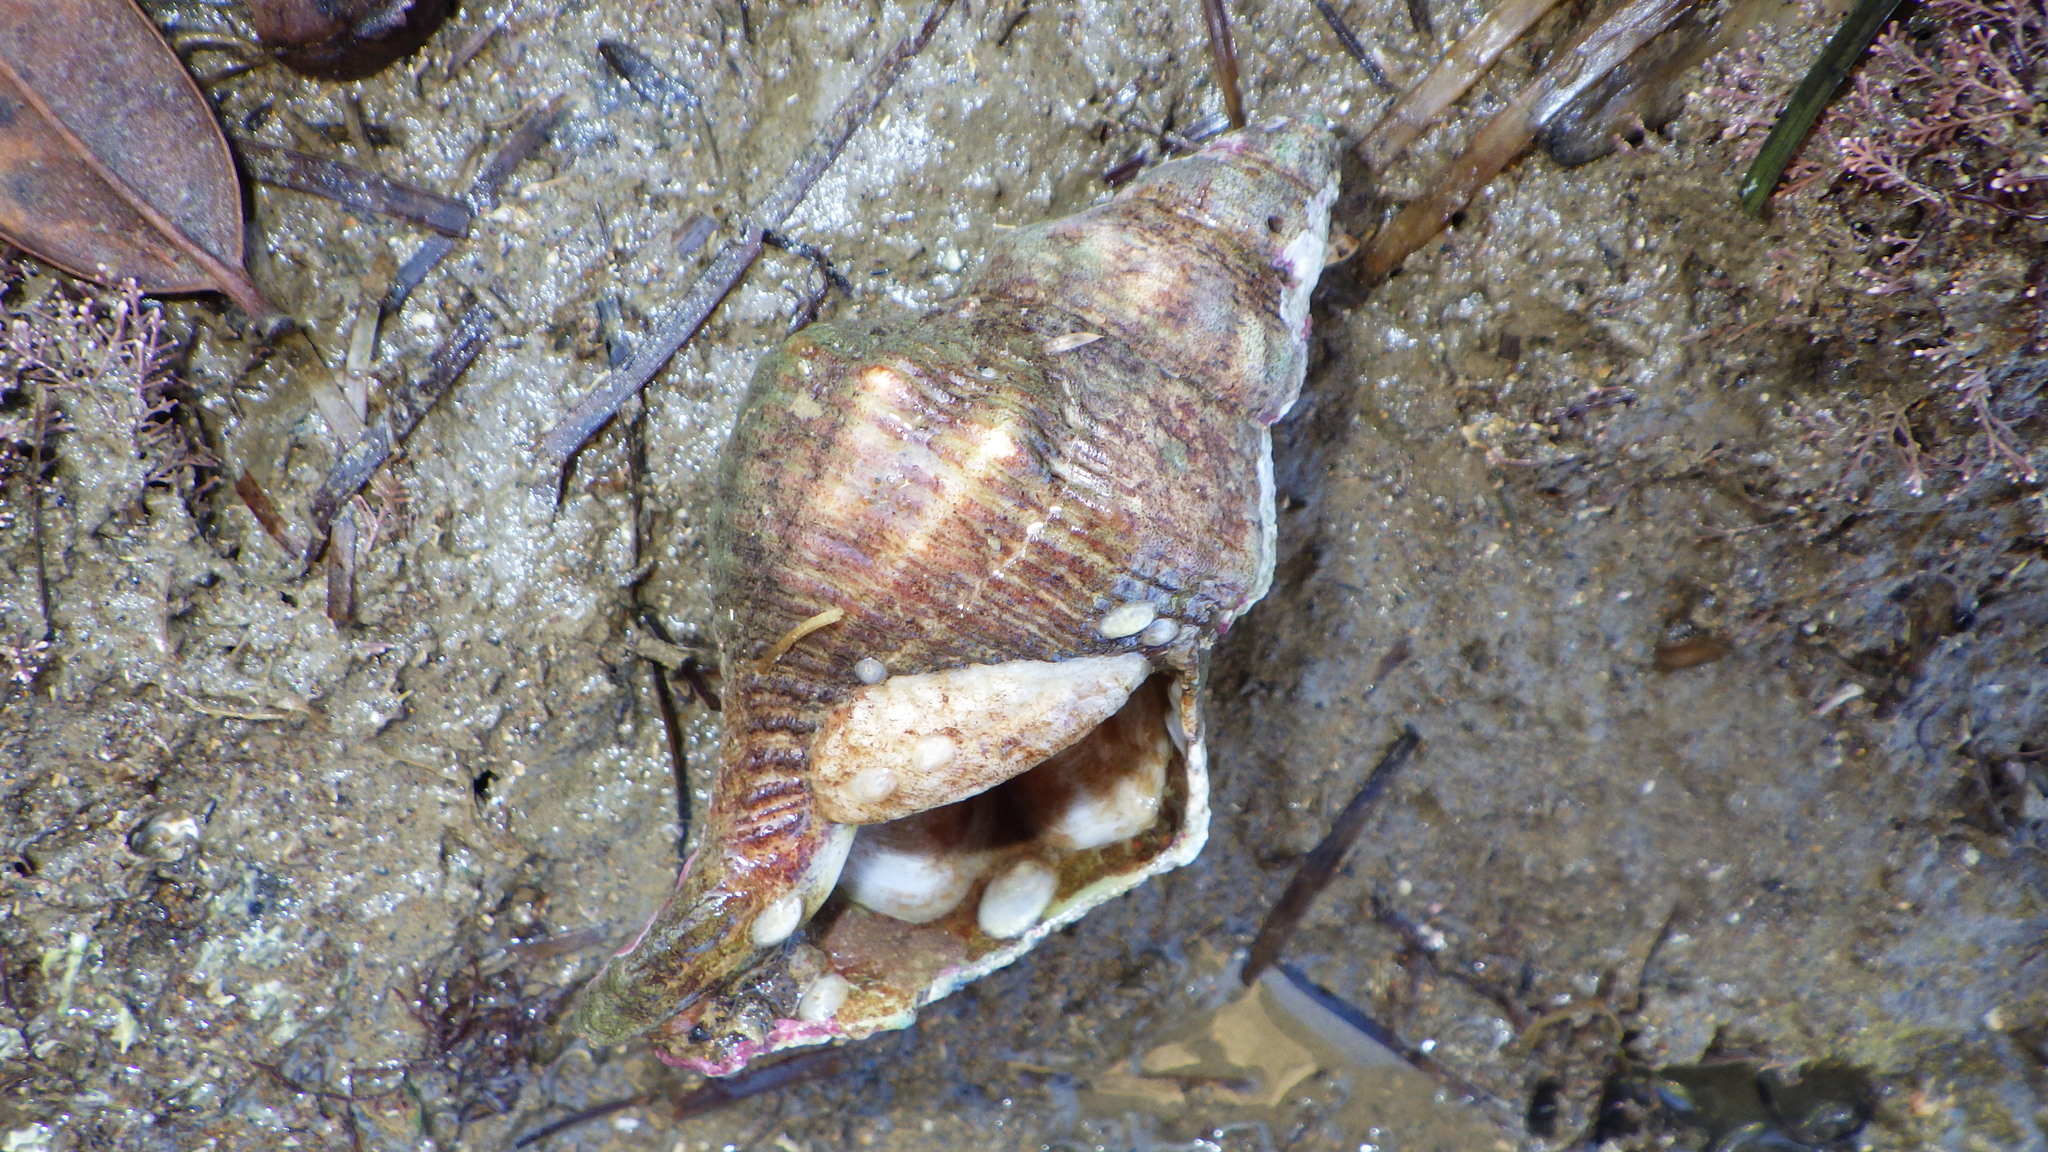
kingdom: Animalia
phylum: Mollusca
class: Gastropoda
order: Neogastropoda
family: Austrosiphonidae
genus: Penion
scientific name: Penion sulcatus
